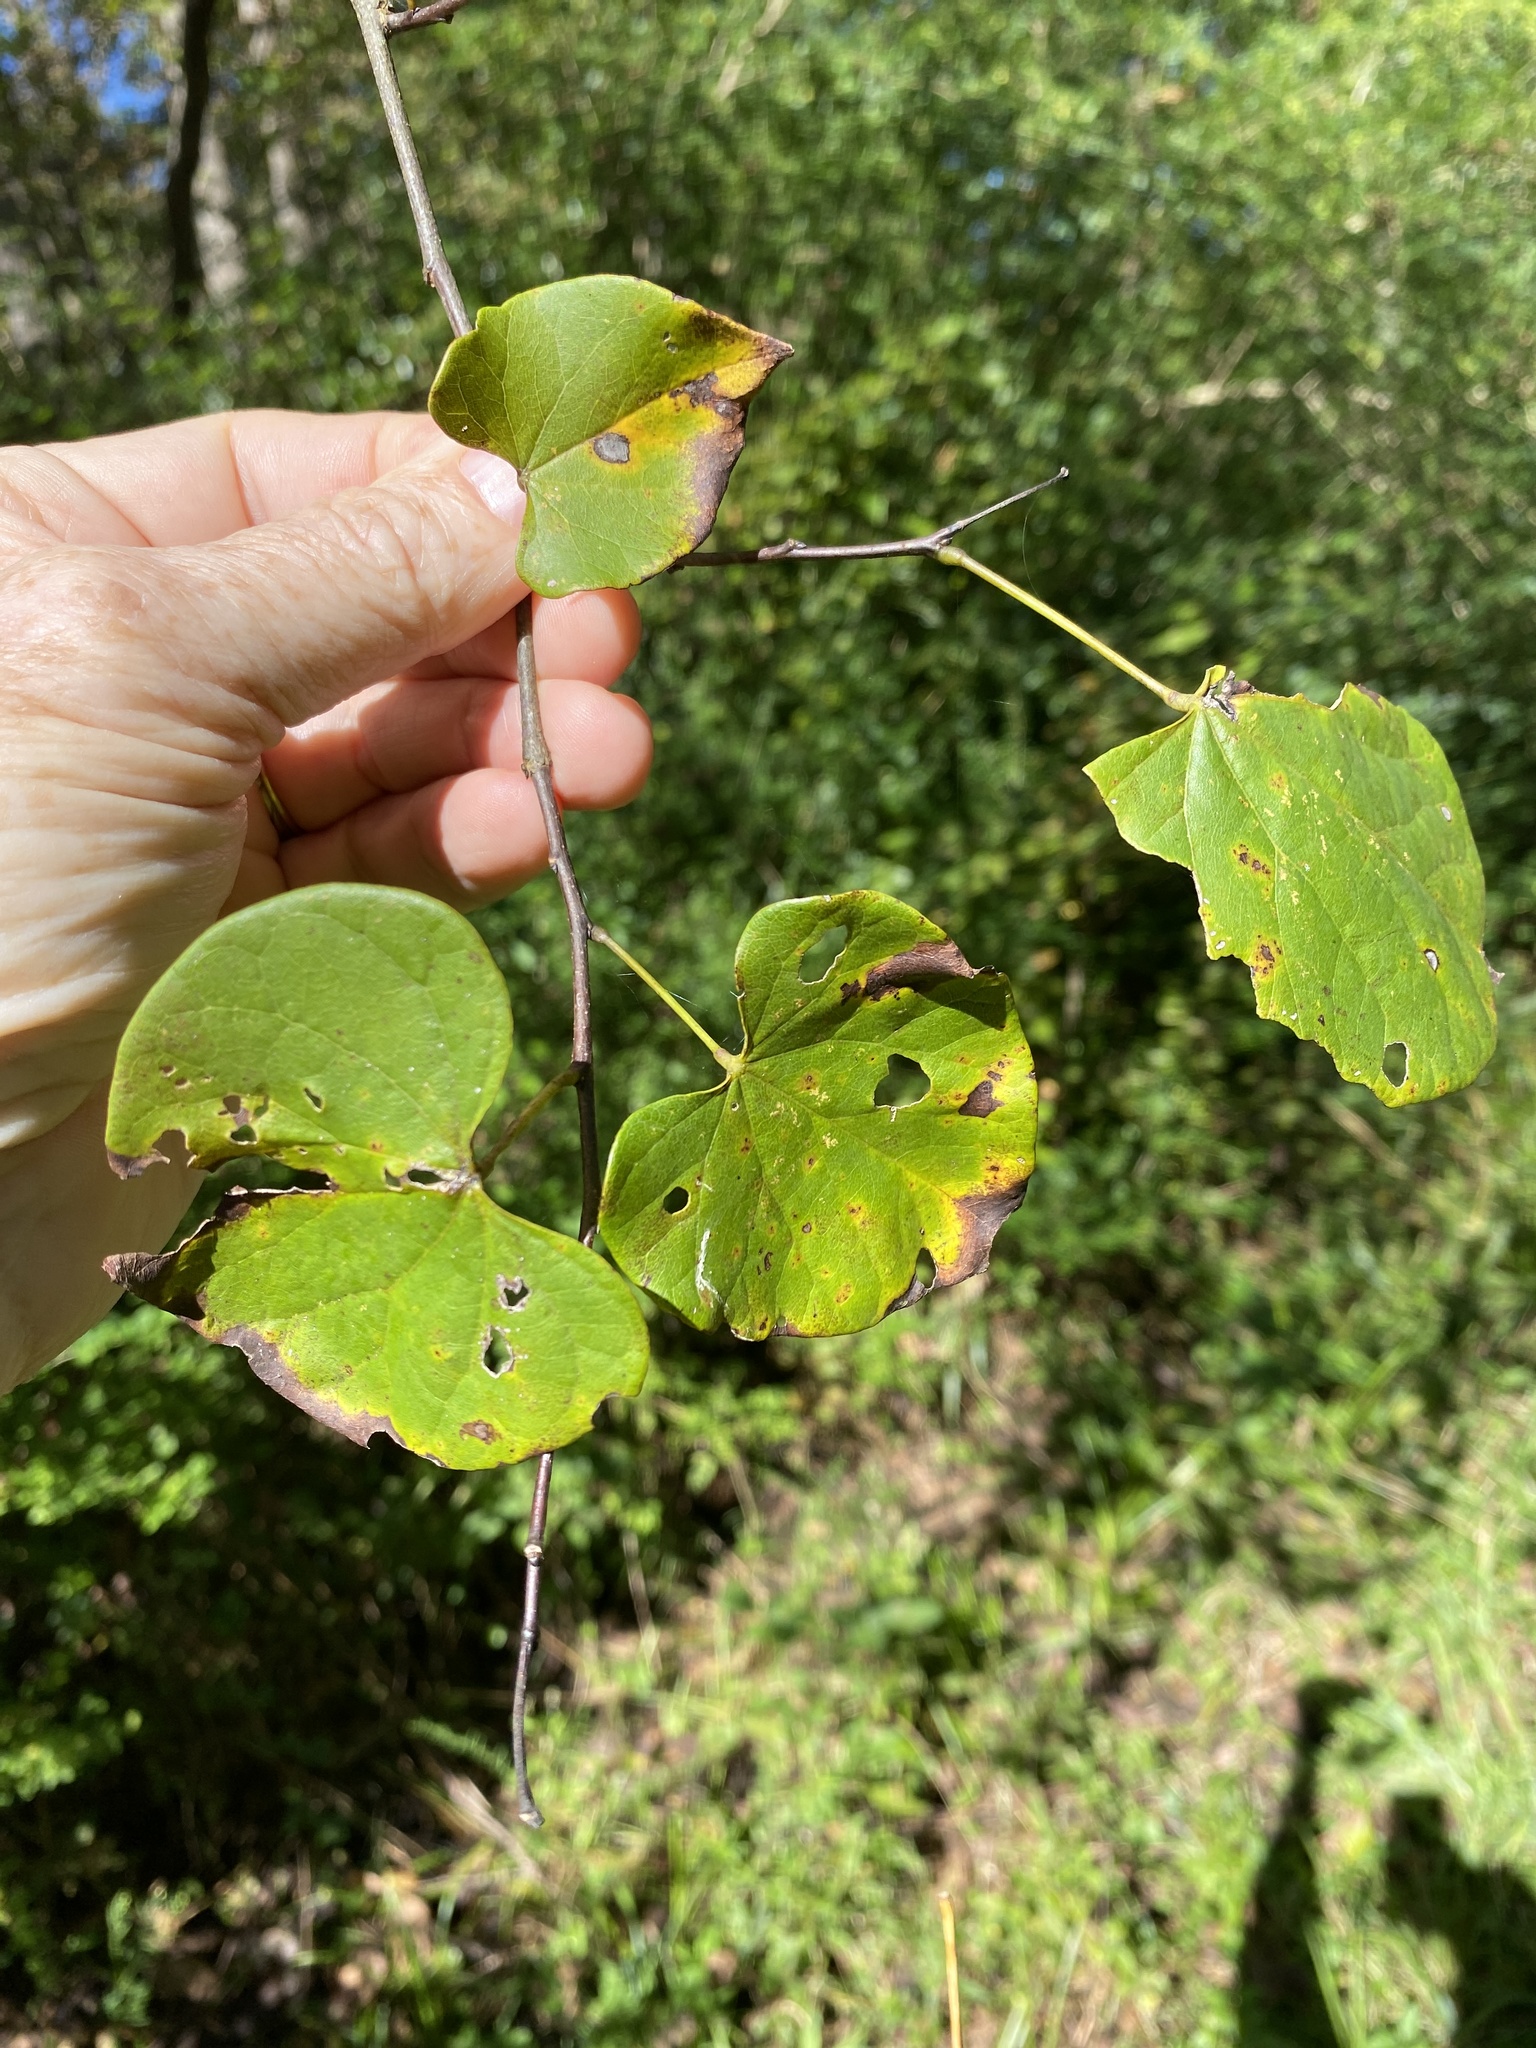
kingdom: Plantae
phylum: Tracheophyta
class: Magnoliopsida
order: Fabales
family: Fabaceae
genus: Cercis
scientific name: Cercis canadensis
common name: Eastern redbud
